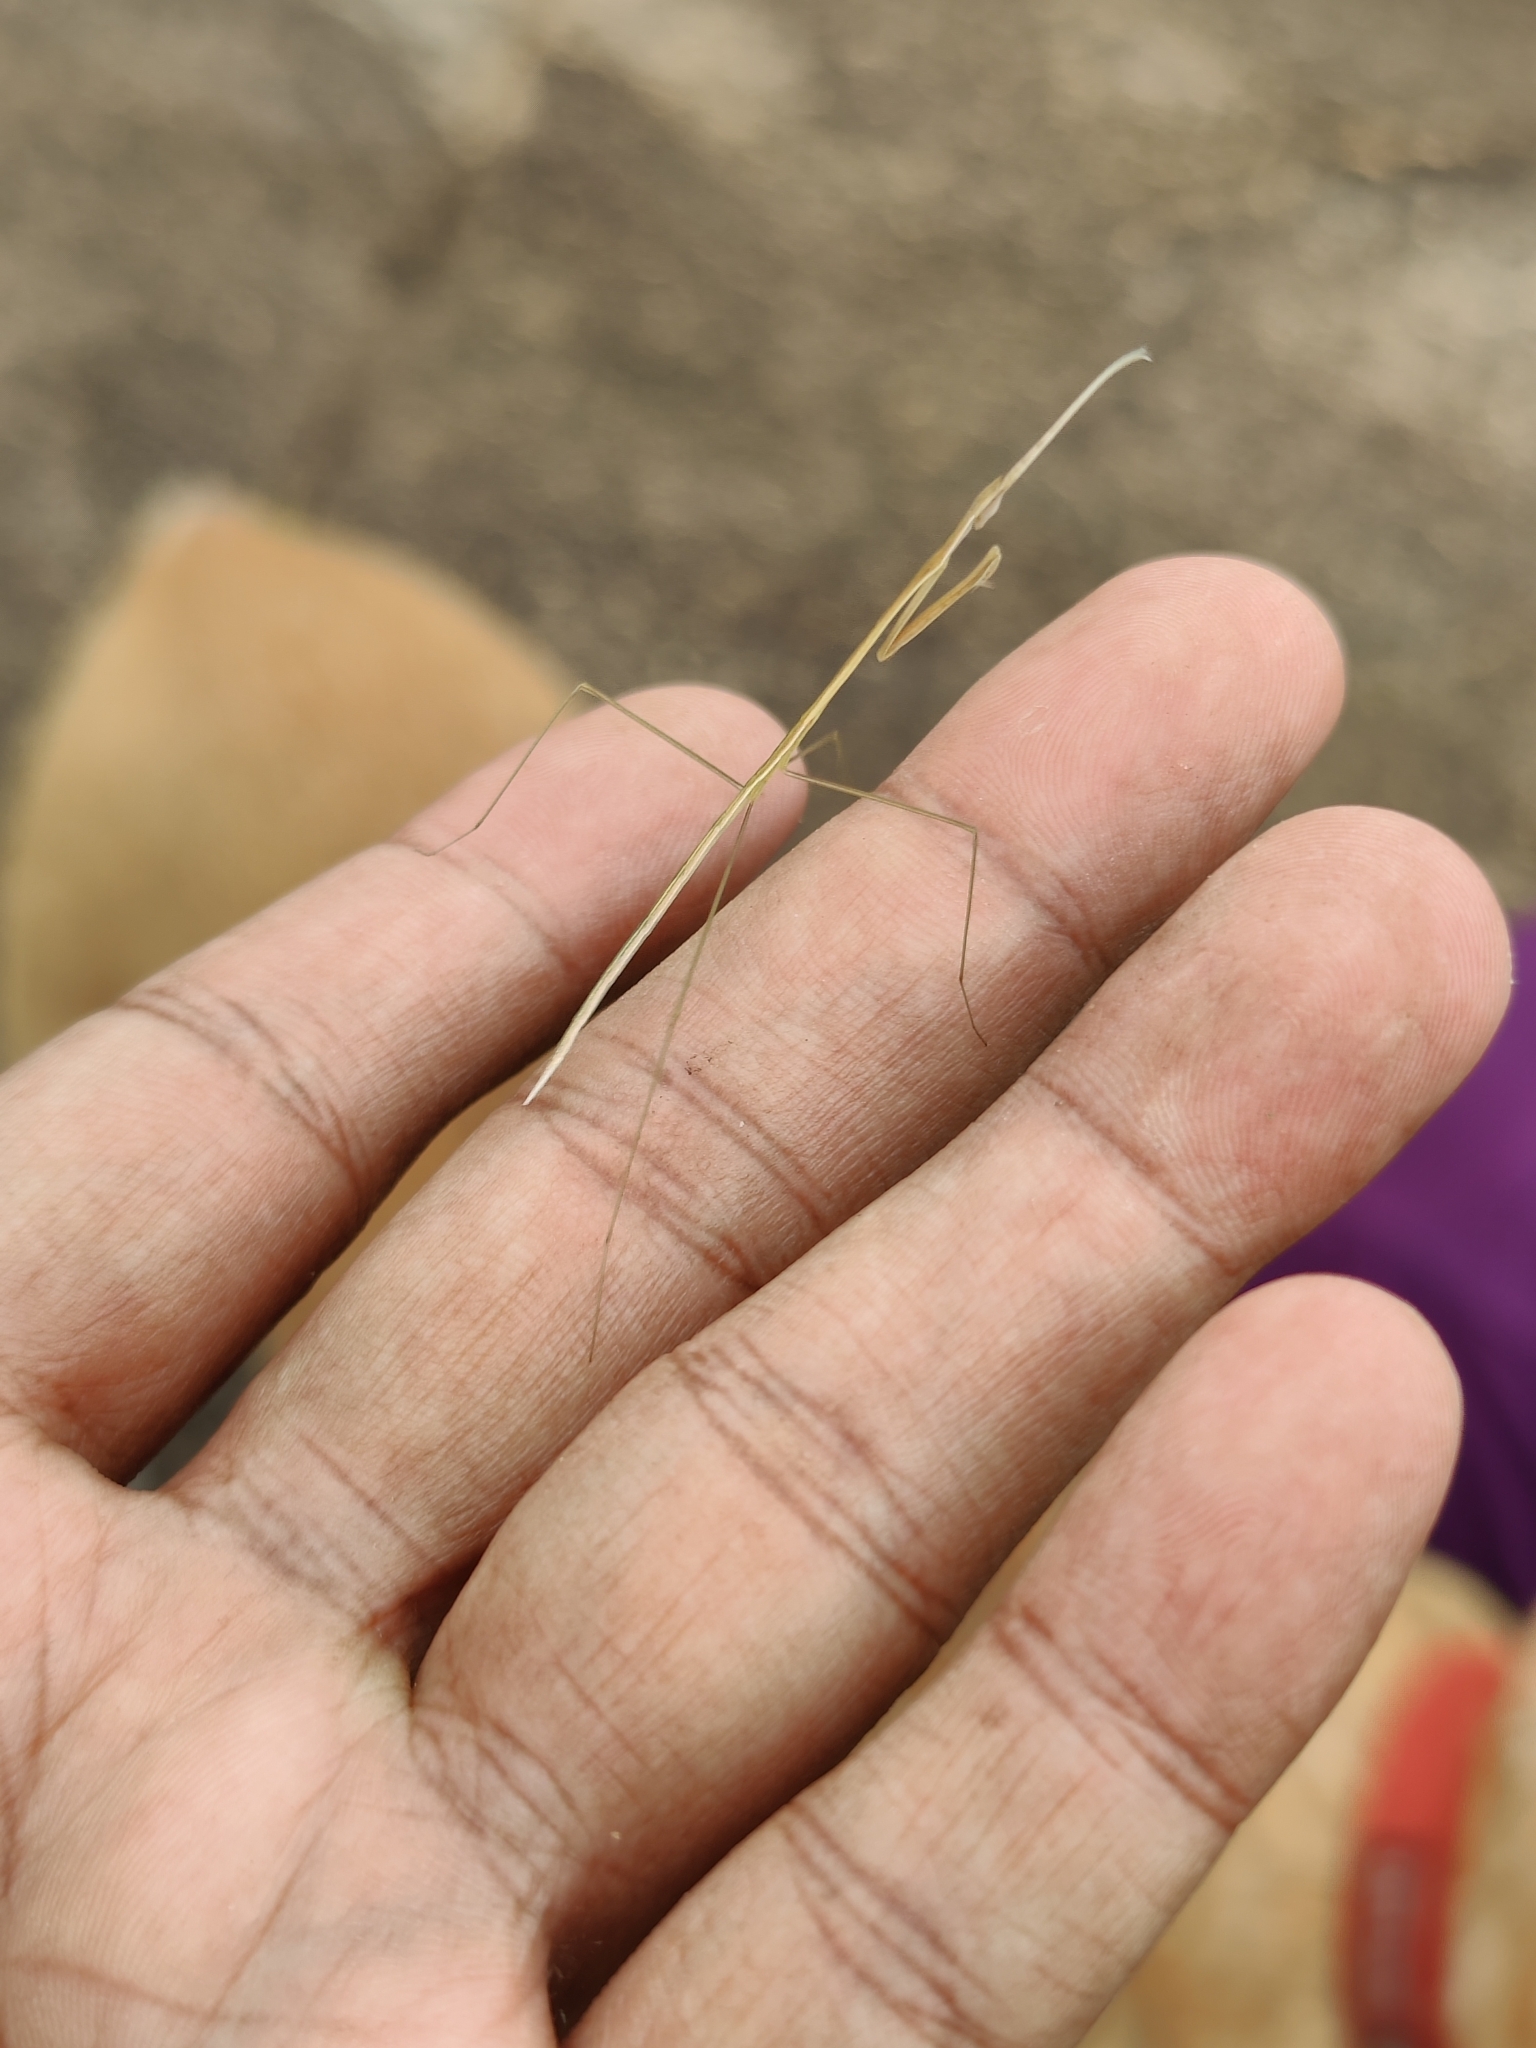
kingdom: Animalia
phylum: Arthropoda
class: Insecta
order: Mantodea
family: Eremiaphilidae
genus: Schizocephala
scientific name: Schizocephala bicornis
